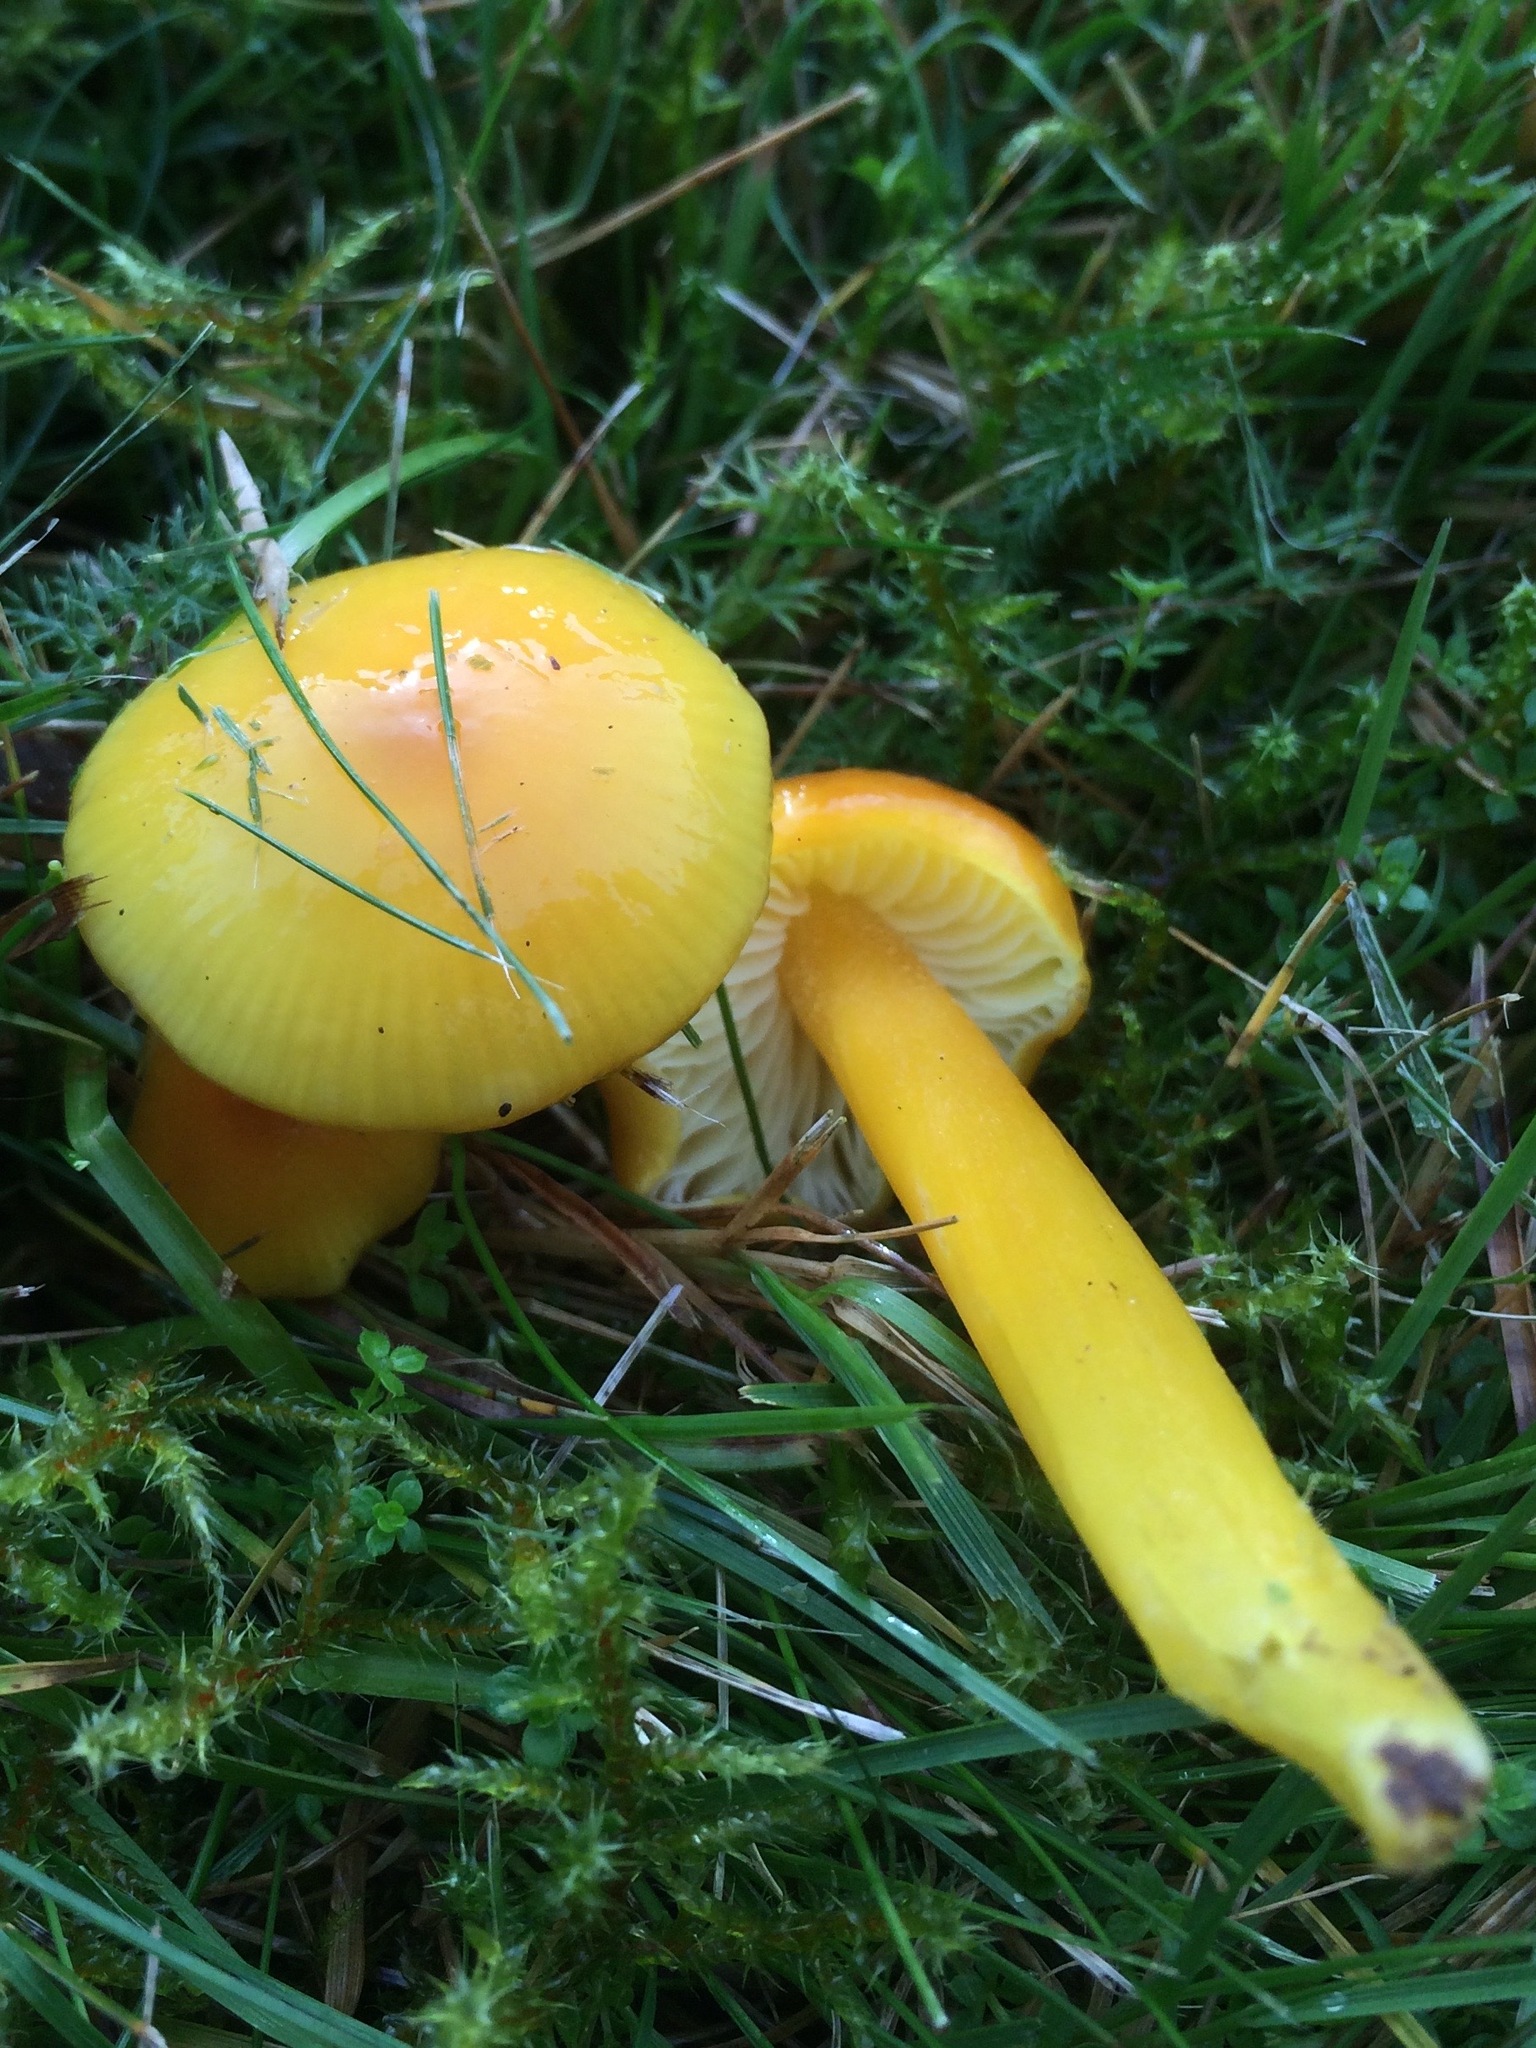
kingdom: Fungi
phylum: Basidiomycota
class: Agaricomycetes
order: Agaricales
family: Hygrophoraceae
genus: Hygrocybe
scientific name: Hygrocybe chlorophana
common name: Golden waxcap
